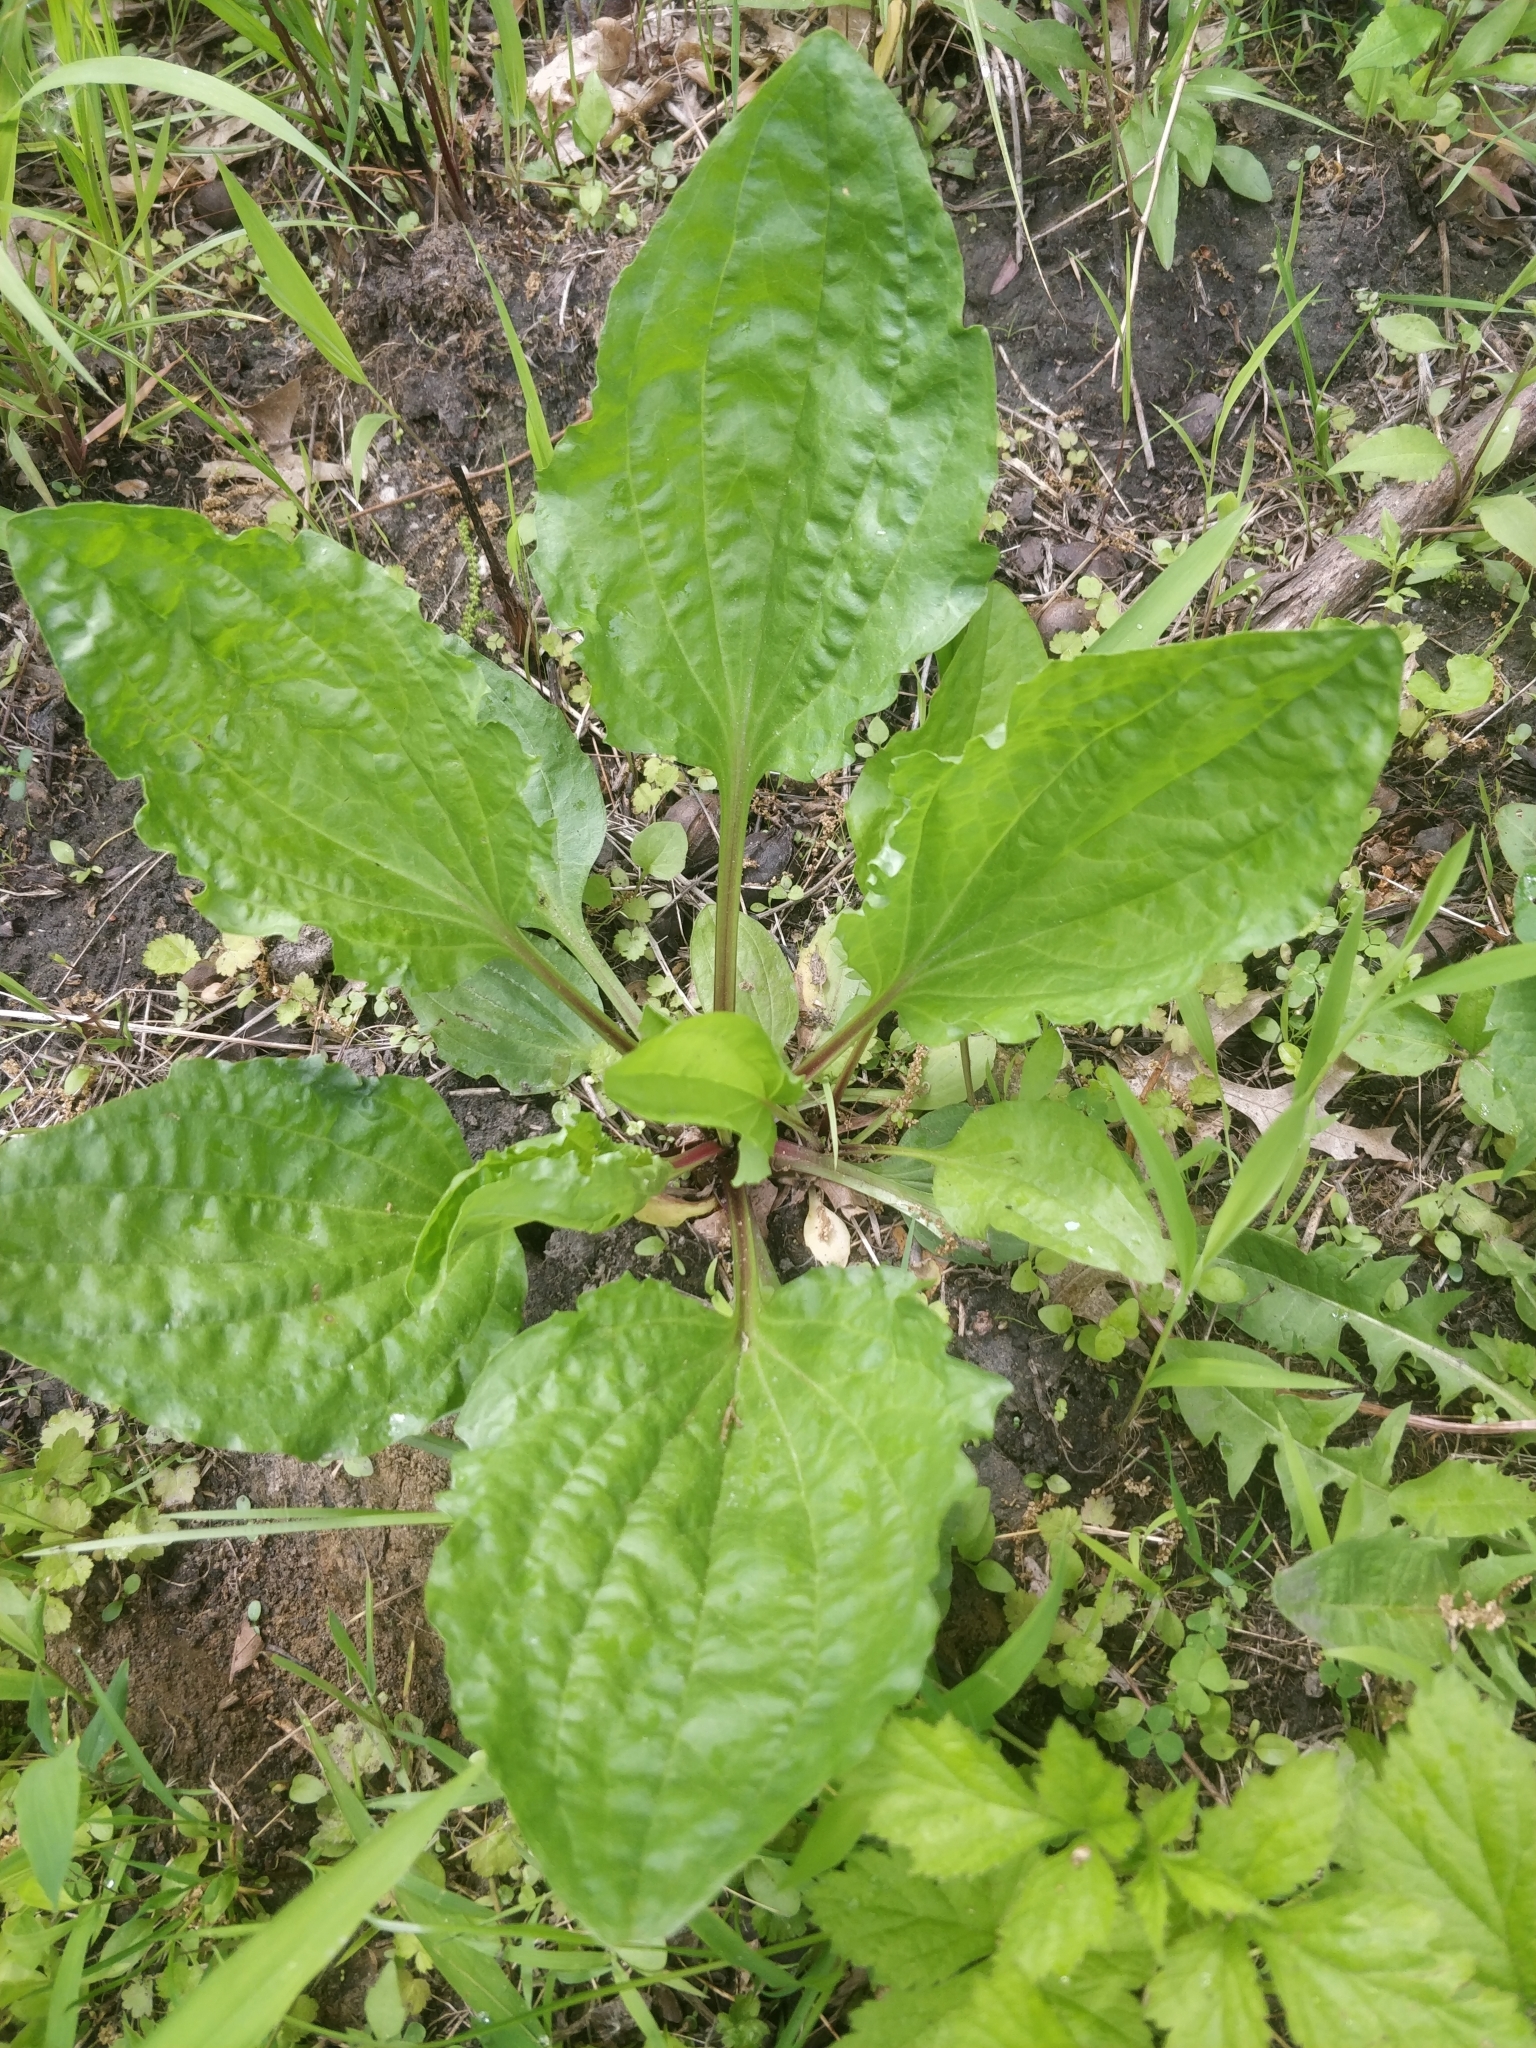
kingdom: Plantae
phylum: Tracheophyta
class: Magnoliopsida
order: Lamiales
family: Plantaginaceae
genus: Plantago
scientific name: Plantago rugelii
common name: American plantain
